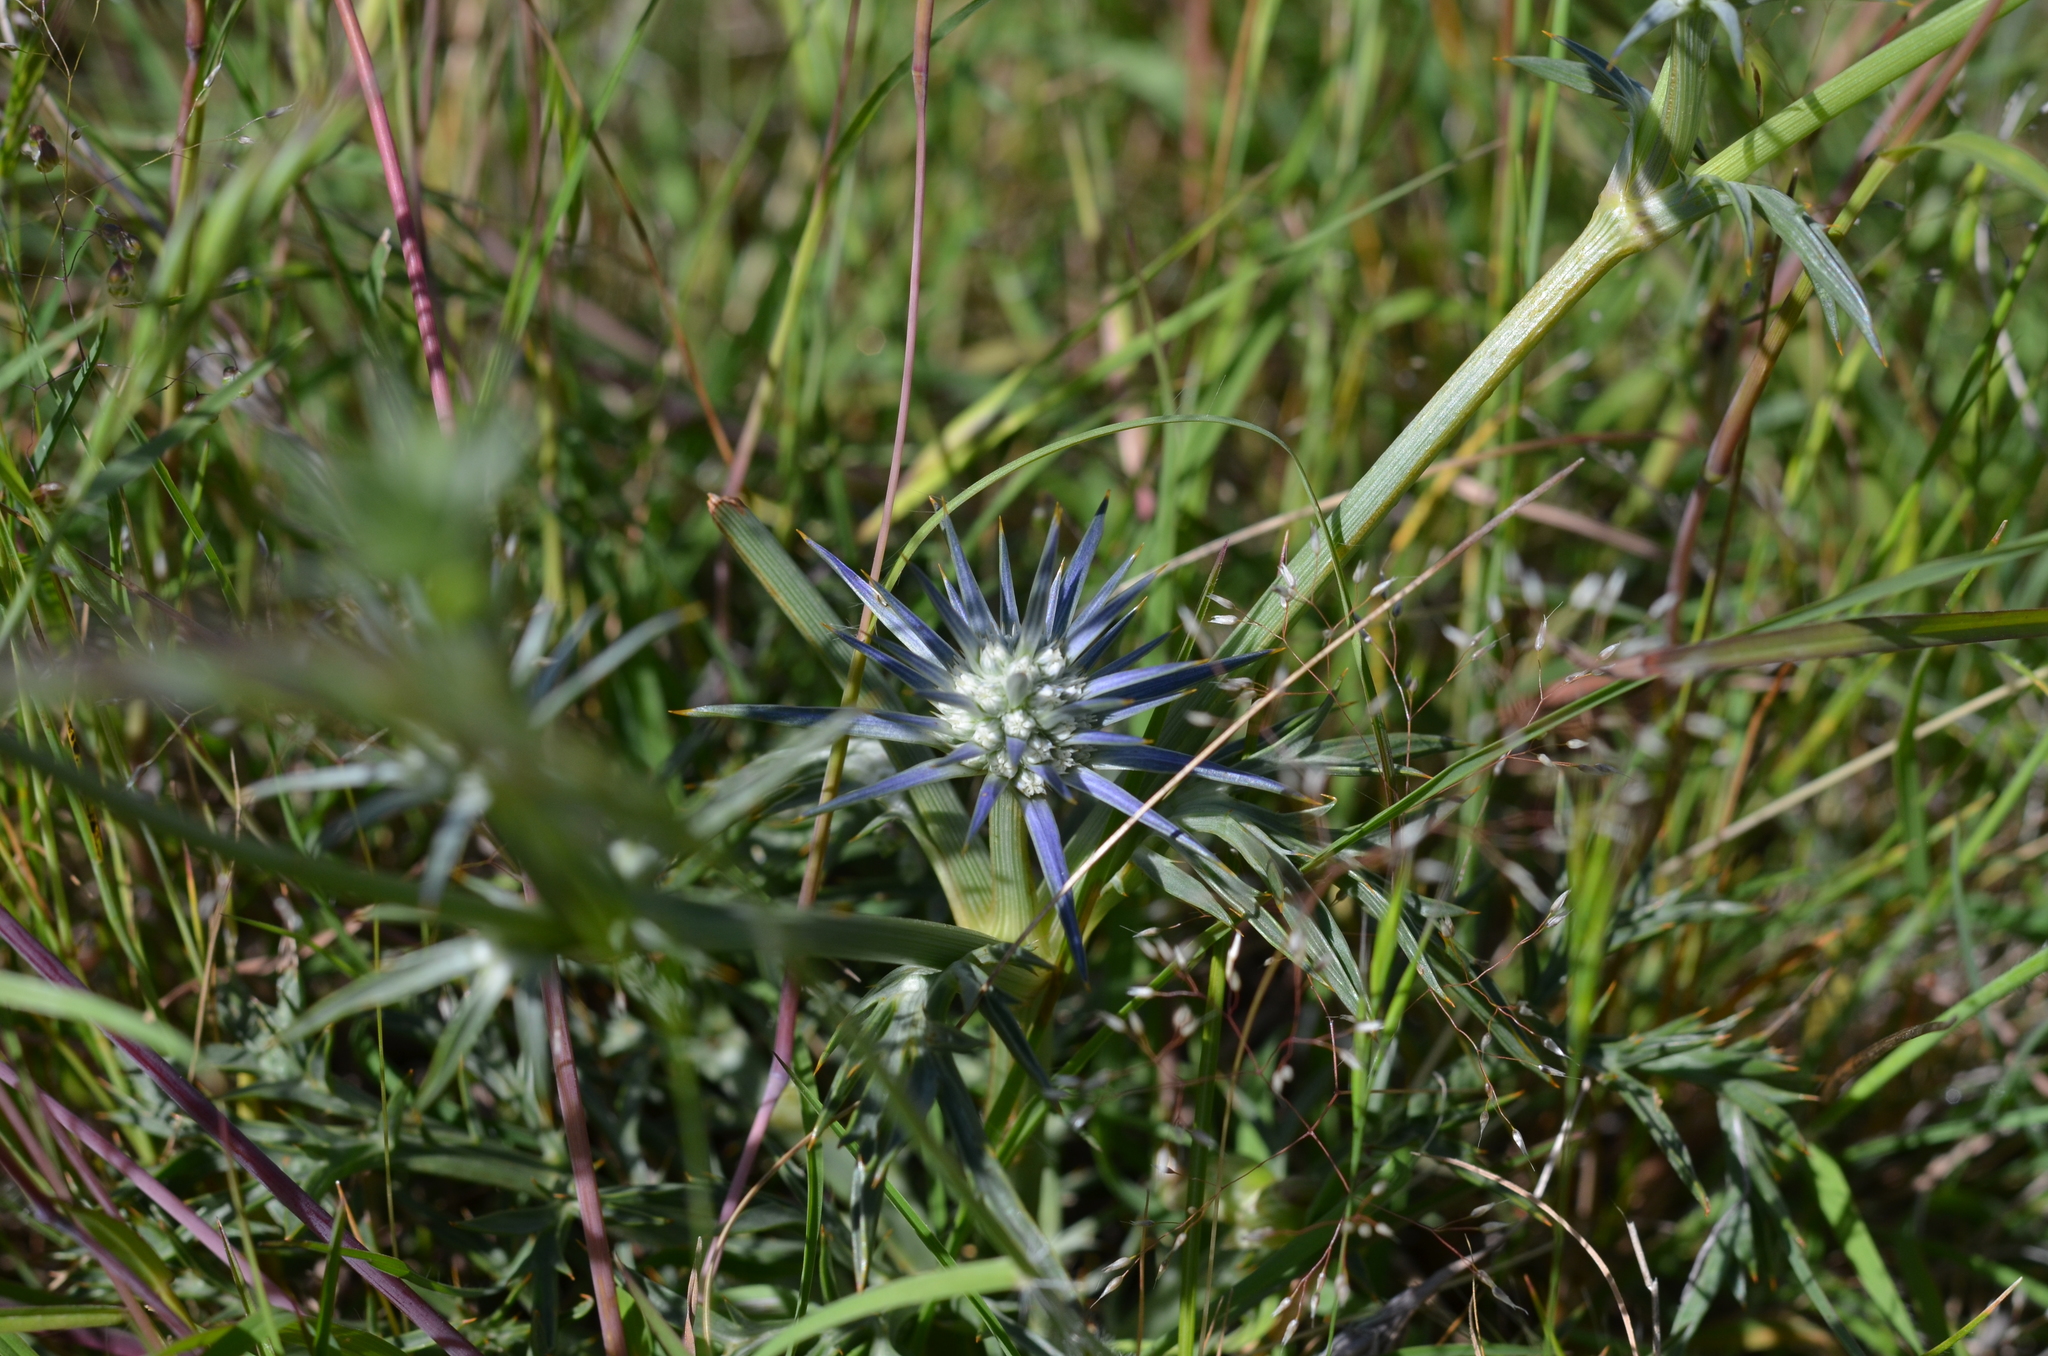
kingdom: Plantae
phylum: Tracheophyta
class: Magnoliopsida
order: Apiales
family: Apiaceae
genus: Eryngium
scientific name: Eryngium ovinum
